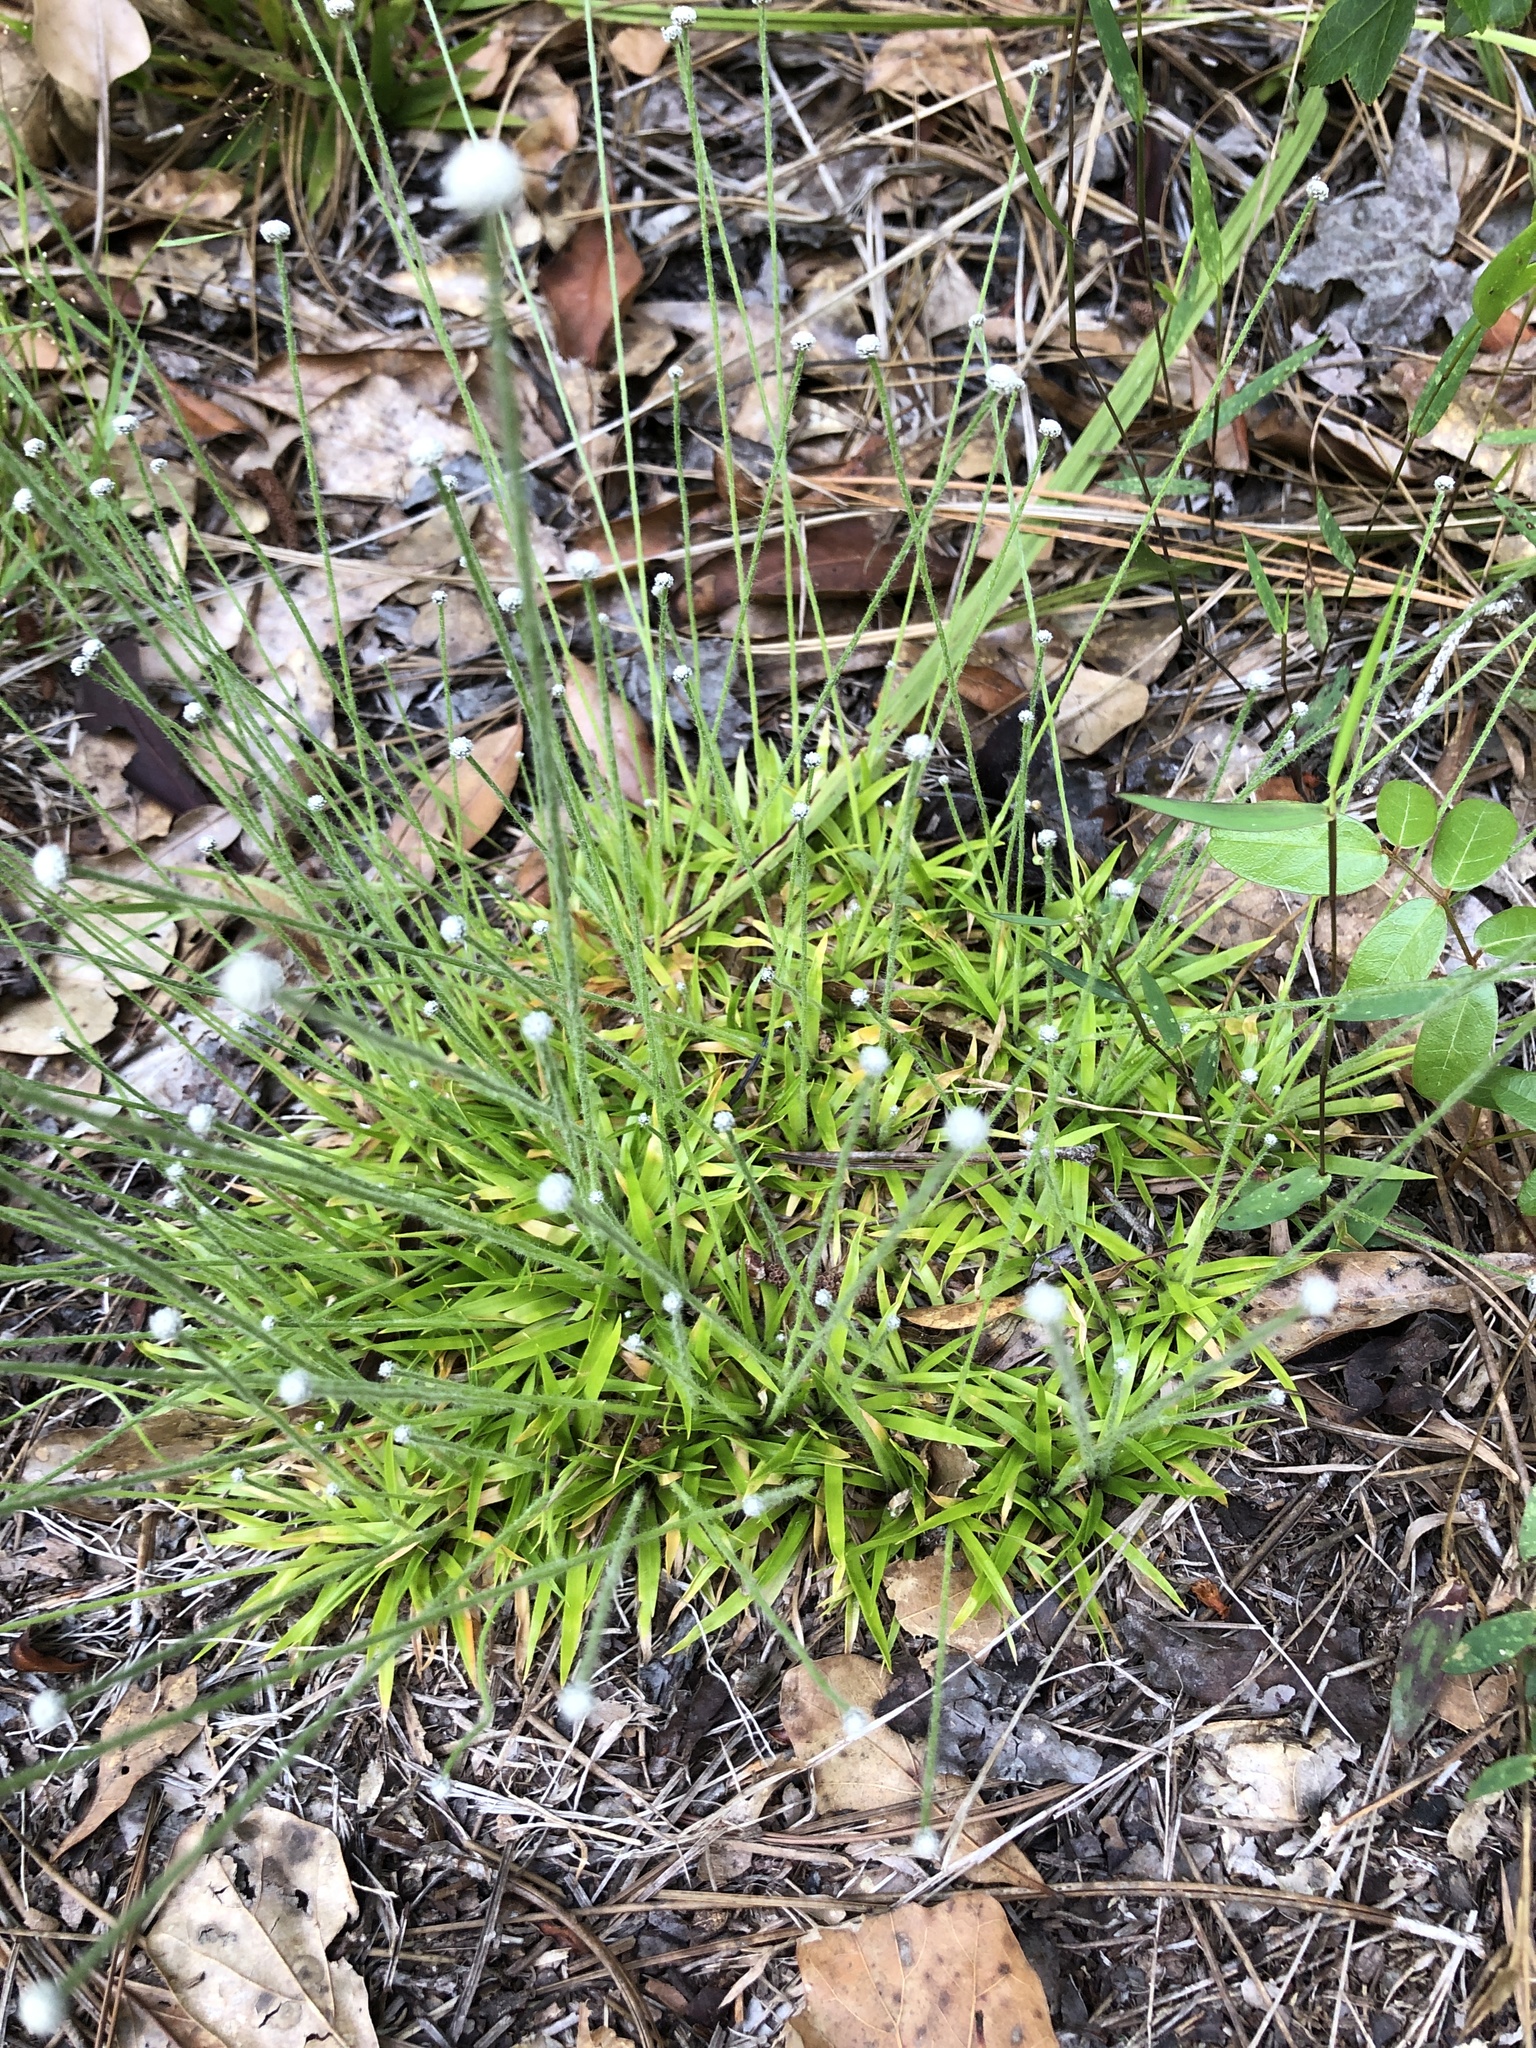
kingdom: Plantae
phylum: Tracheophyta
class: Liliopsida
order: Poales
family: Eriocaulaceae
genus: Paepalanthus
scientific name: Paepalanthus anceps
